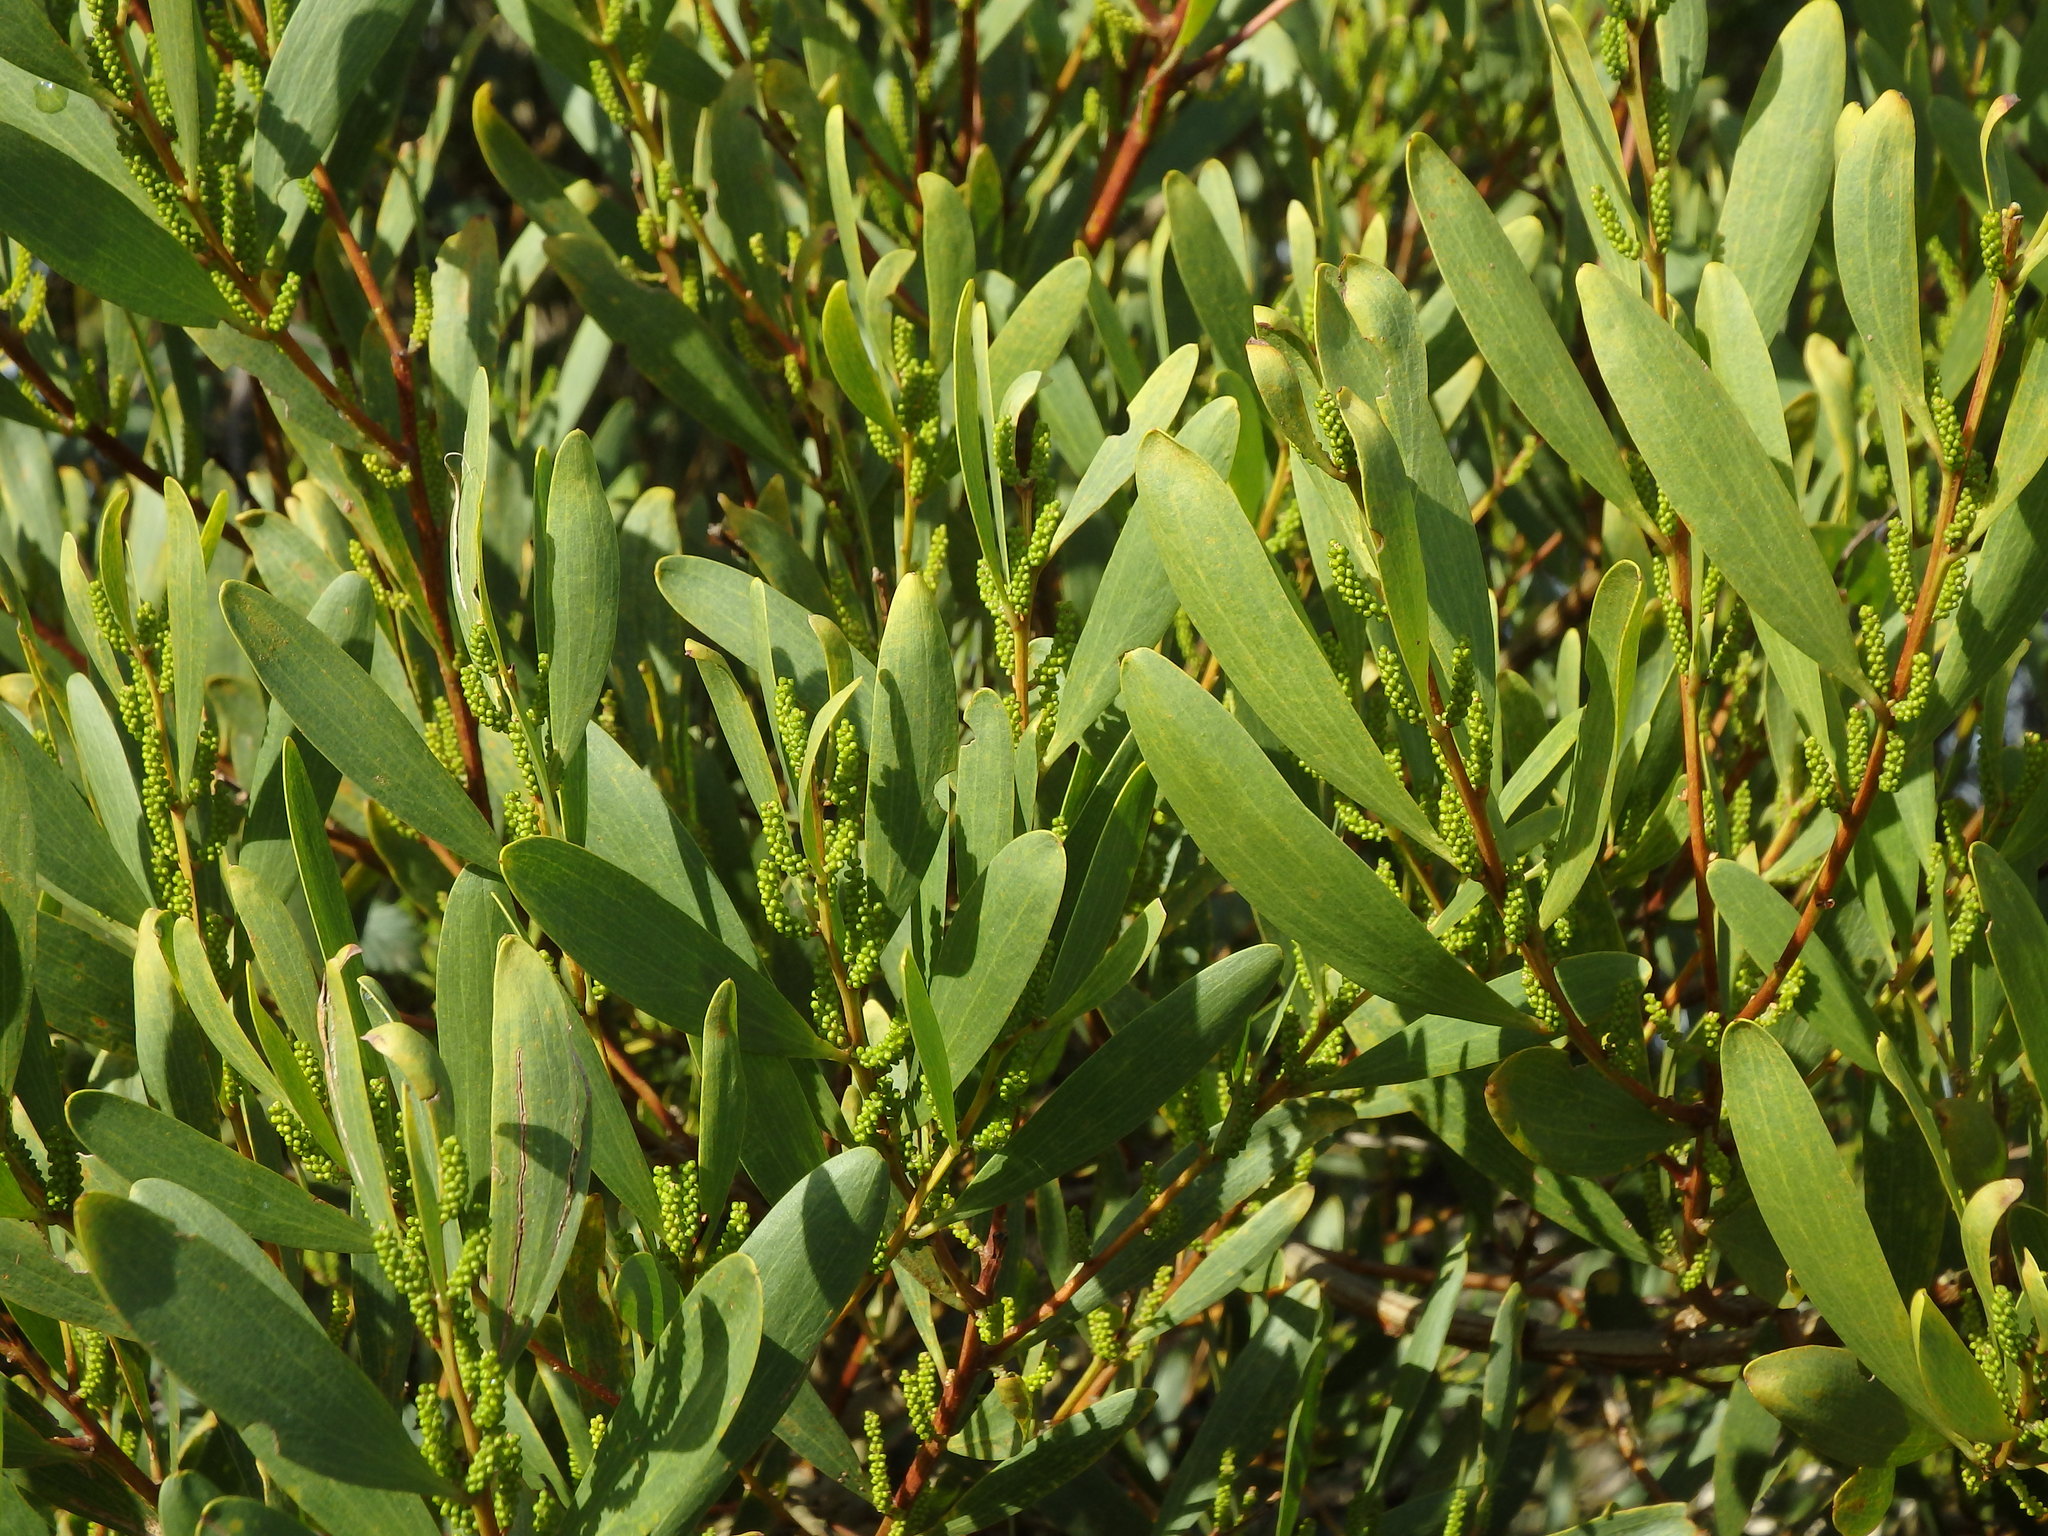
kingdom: Plantae
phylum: Tracheophyta
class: Magnoliopsida
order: Fabales
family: Fabaceae
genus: Acacia
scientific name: Acacia longifolia
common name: Sydney golden wattle
